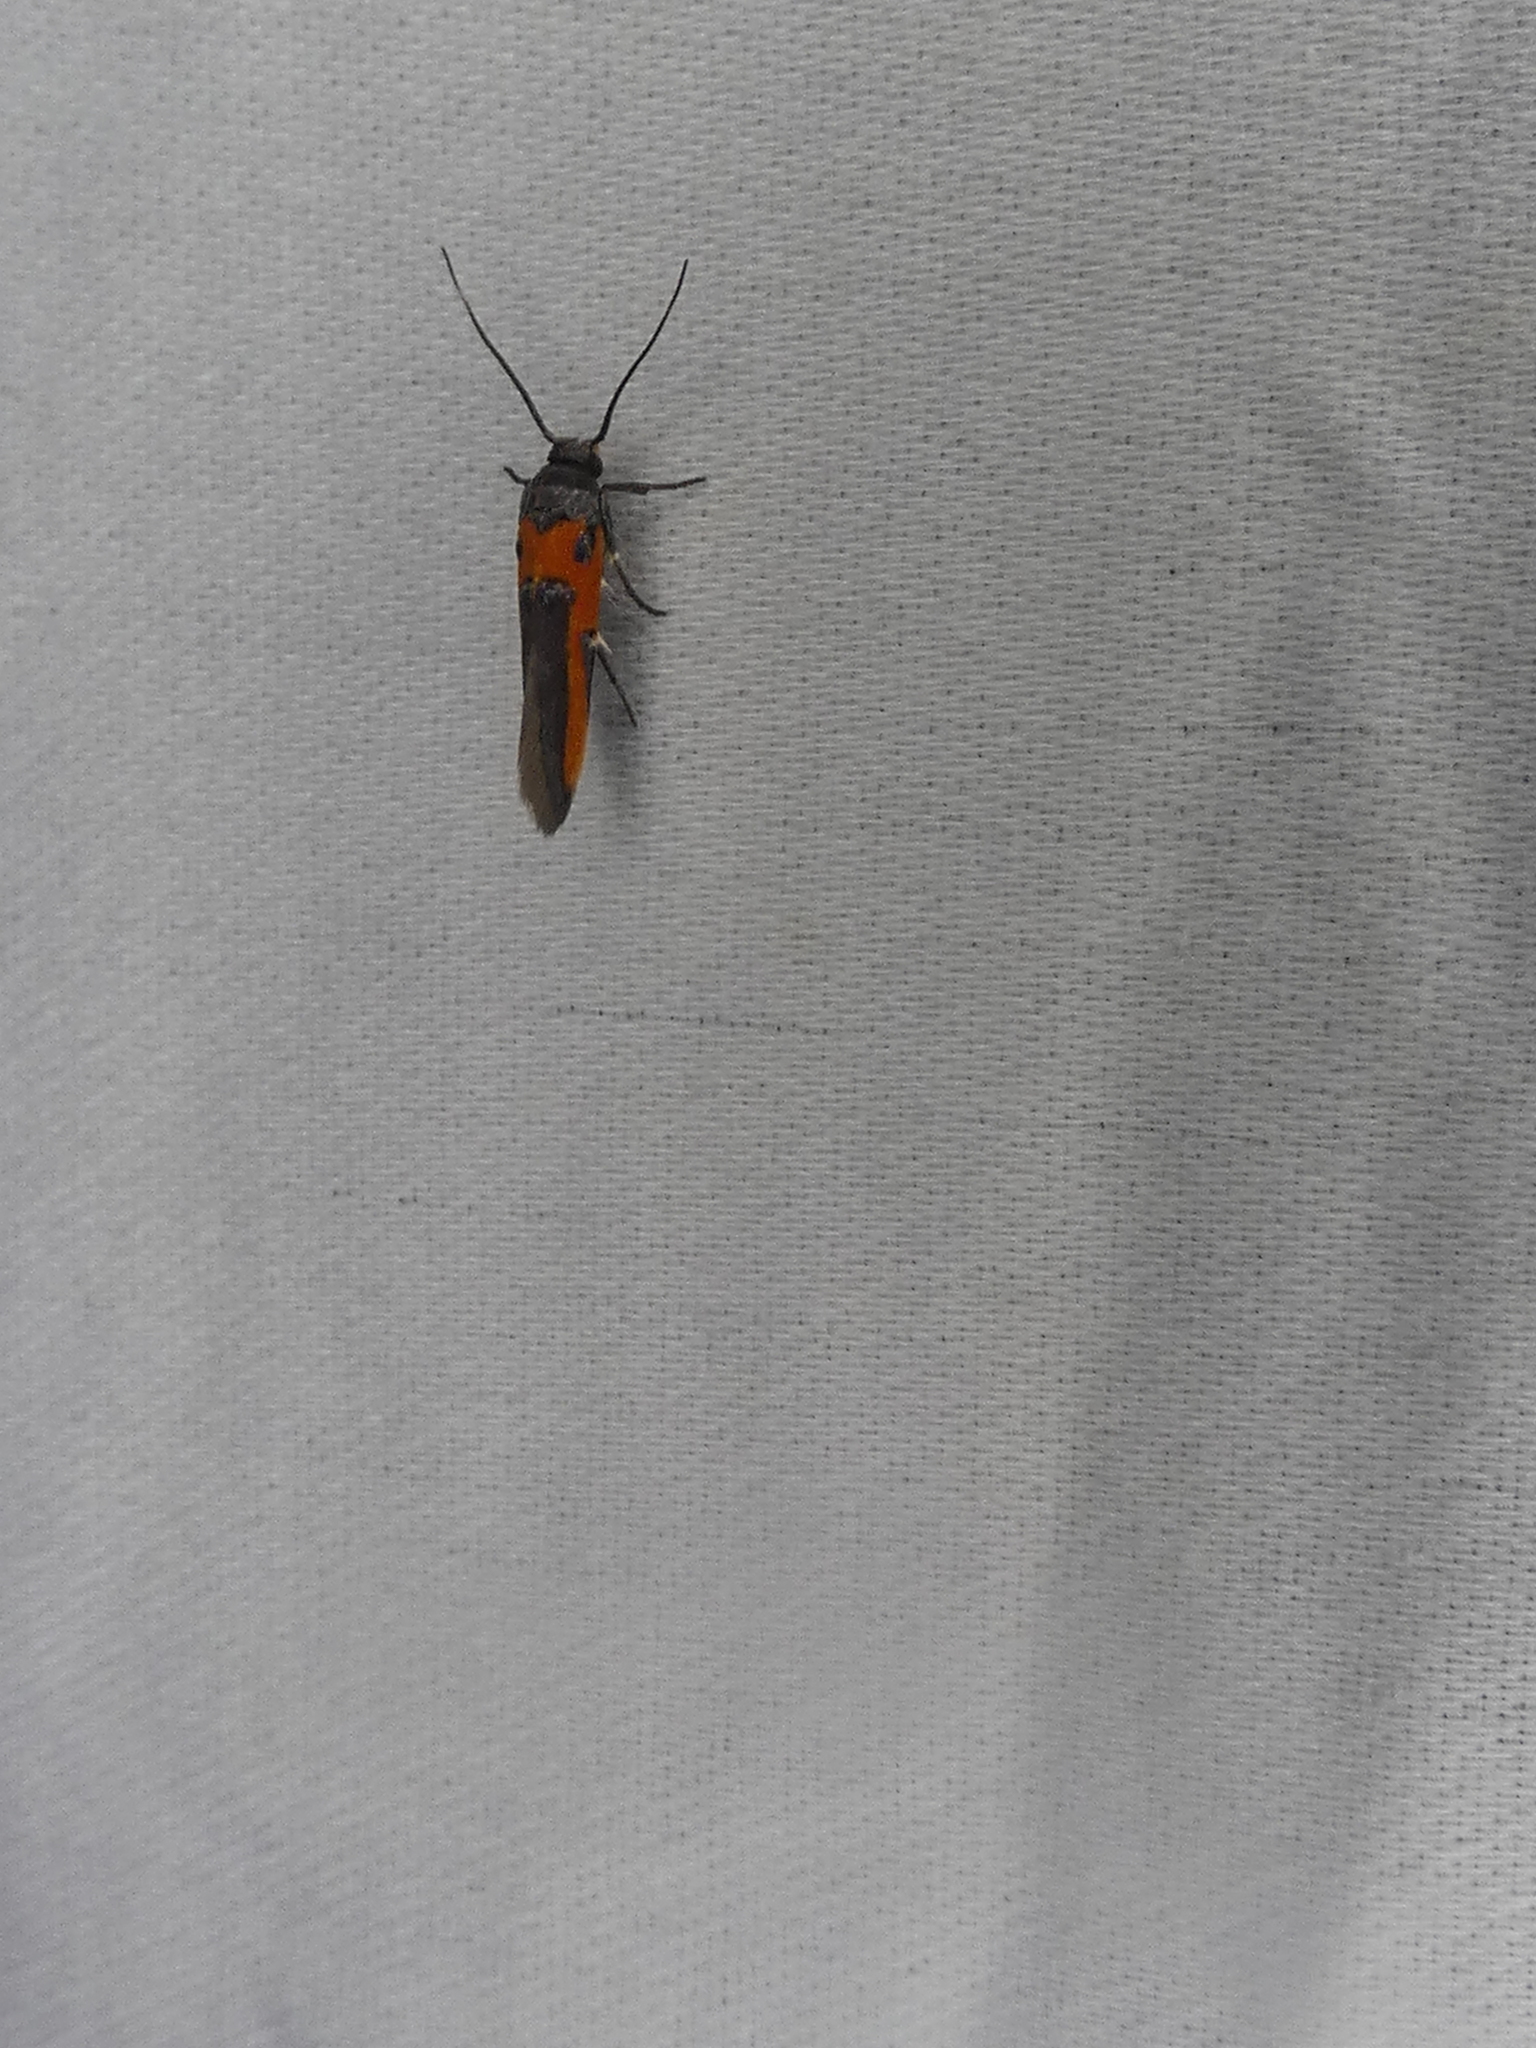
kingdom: Animalia
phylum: Arthropoda
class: Insecta
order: Lepidoptera
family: Cosmopterigidae
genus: Euclemensia
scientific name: Euclemensia bassettella
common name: Kermes scale moth
